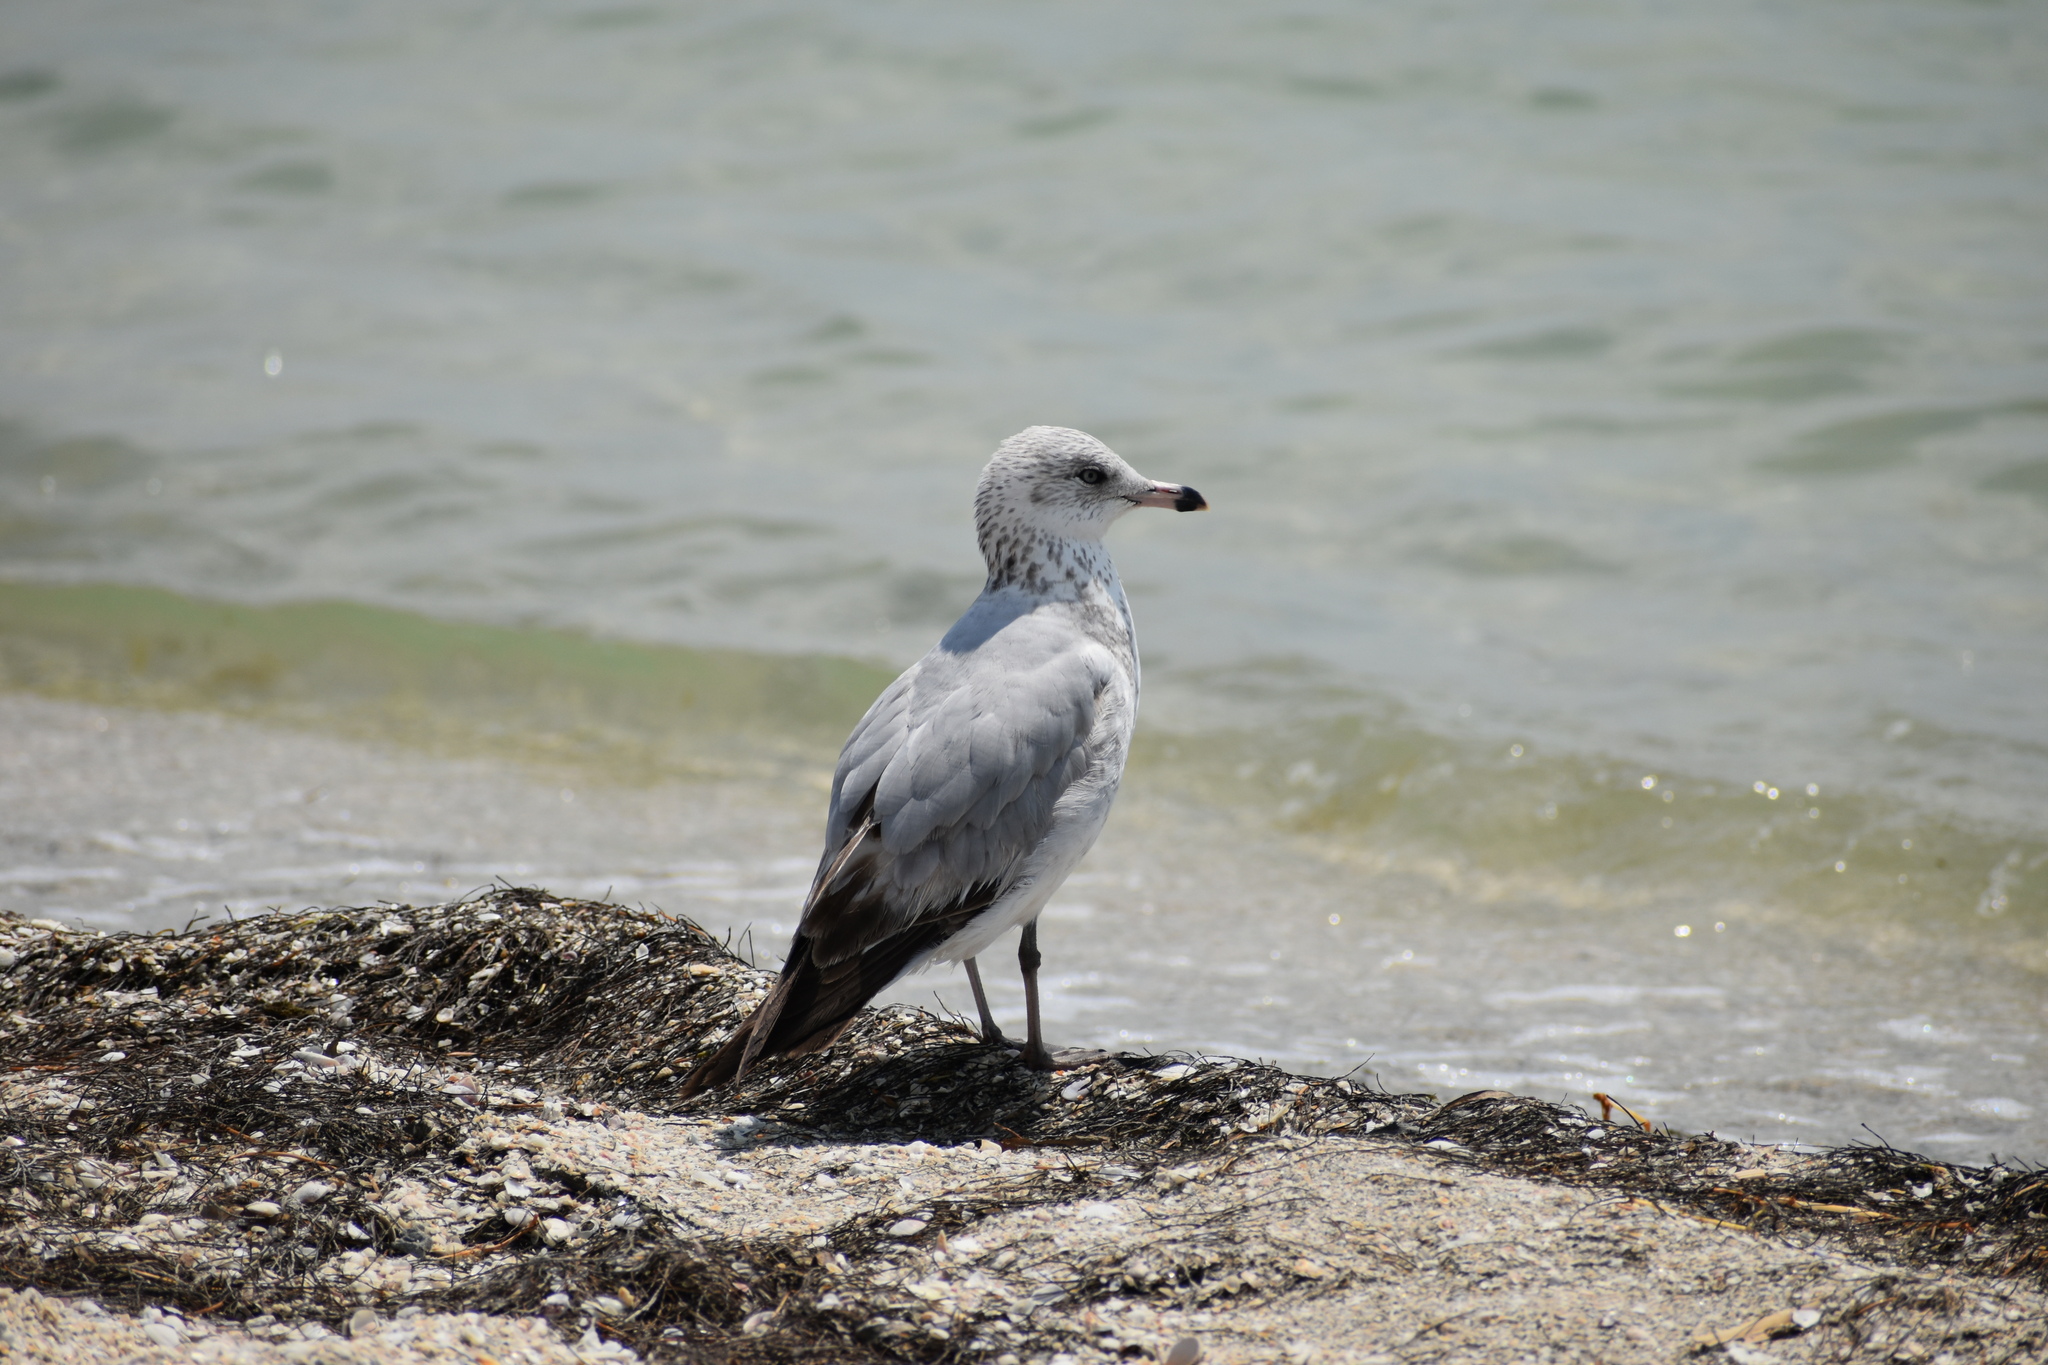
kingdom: Animalia
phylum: Chordata
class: Aves
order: Charadriiformes
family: Laridae
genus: Larus
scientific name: Larus delawarensis
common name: Ring-billed gull
